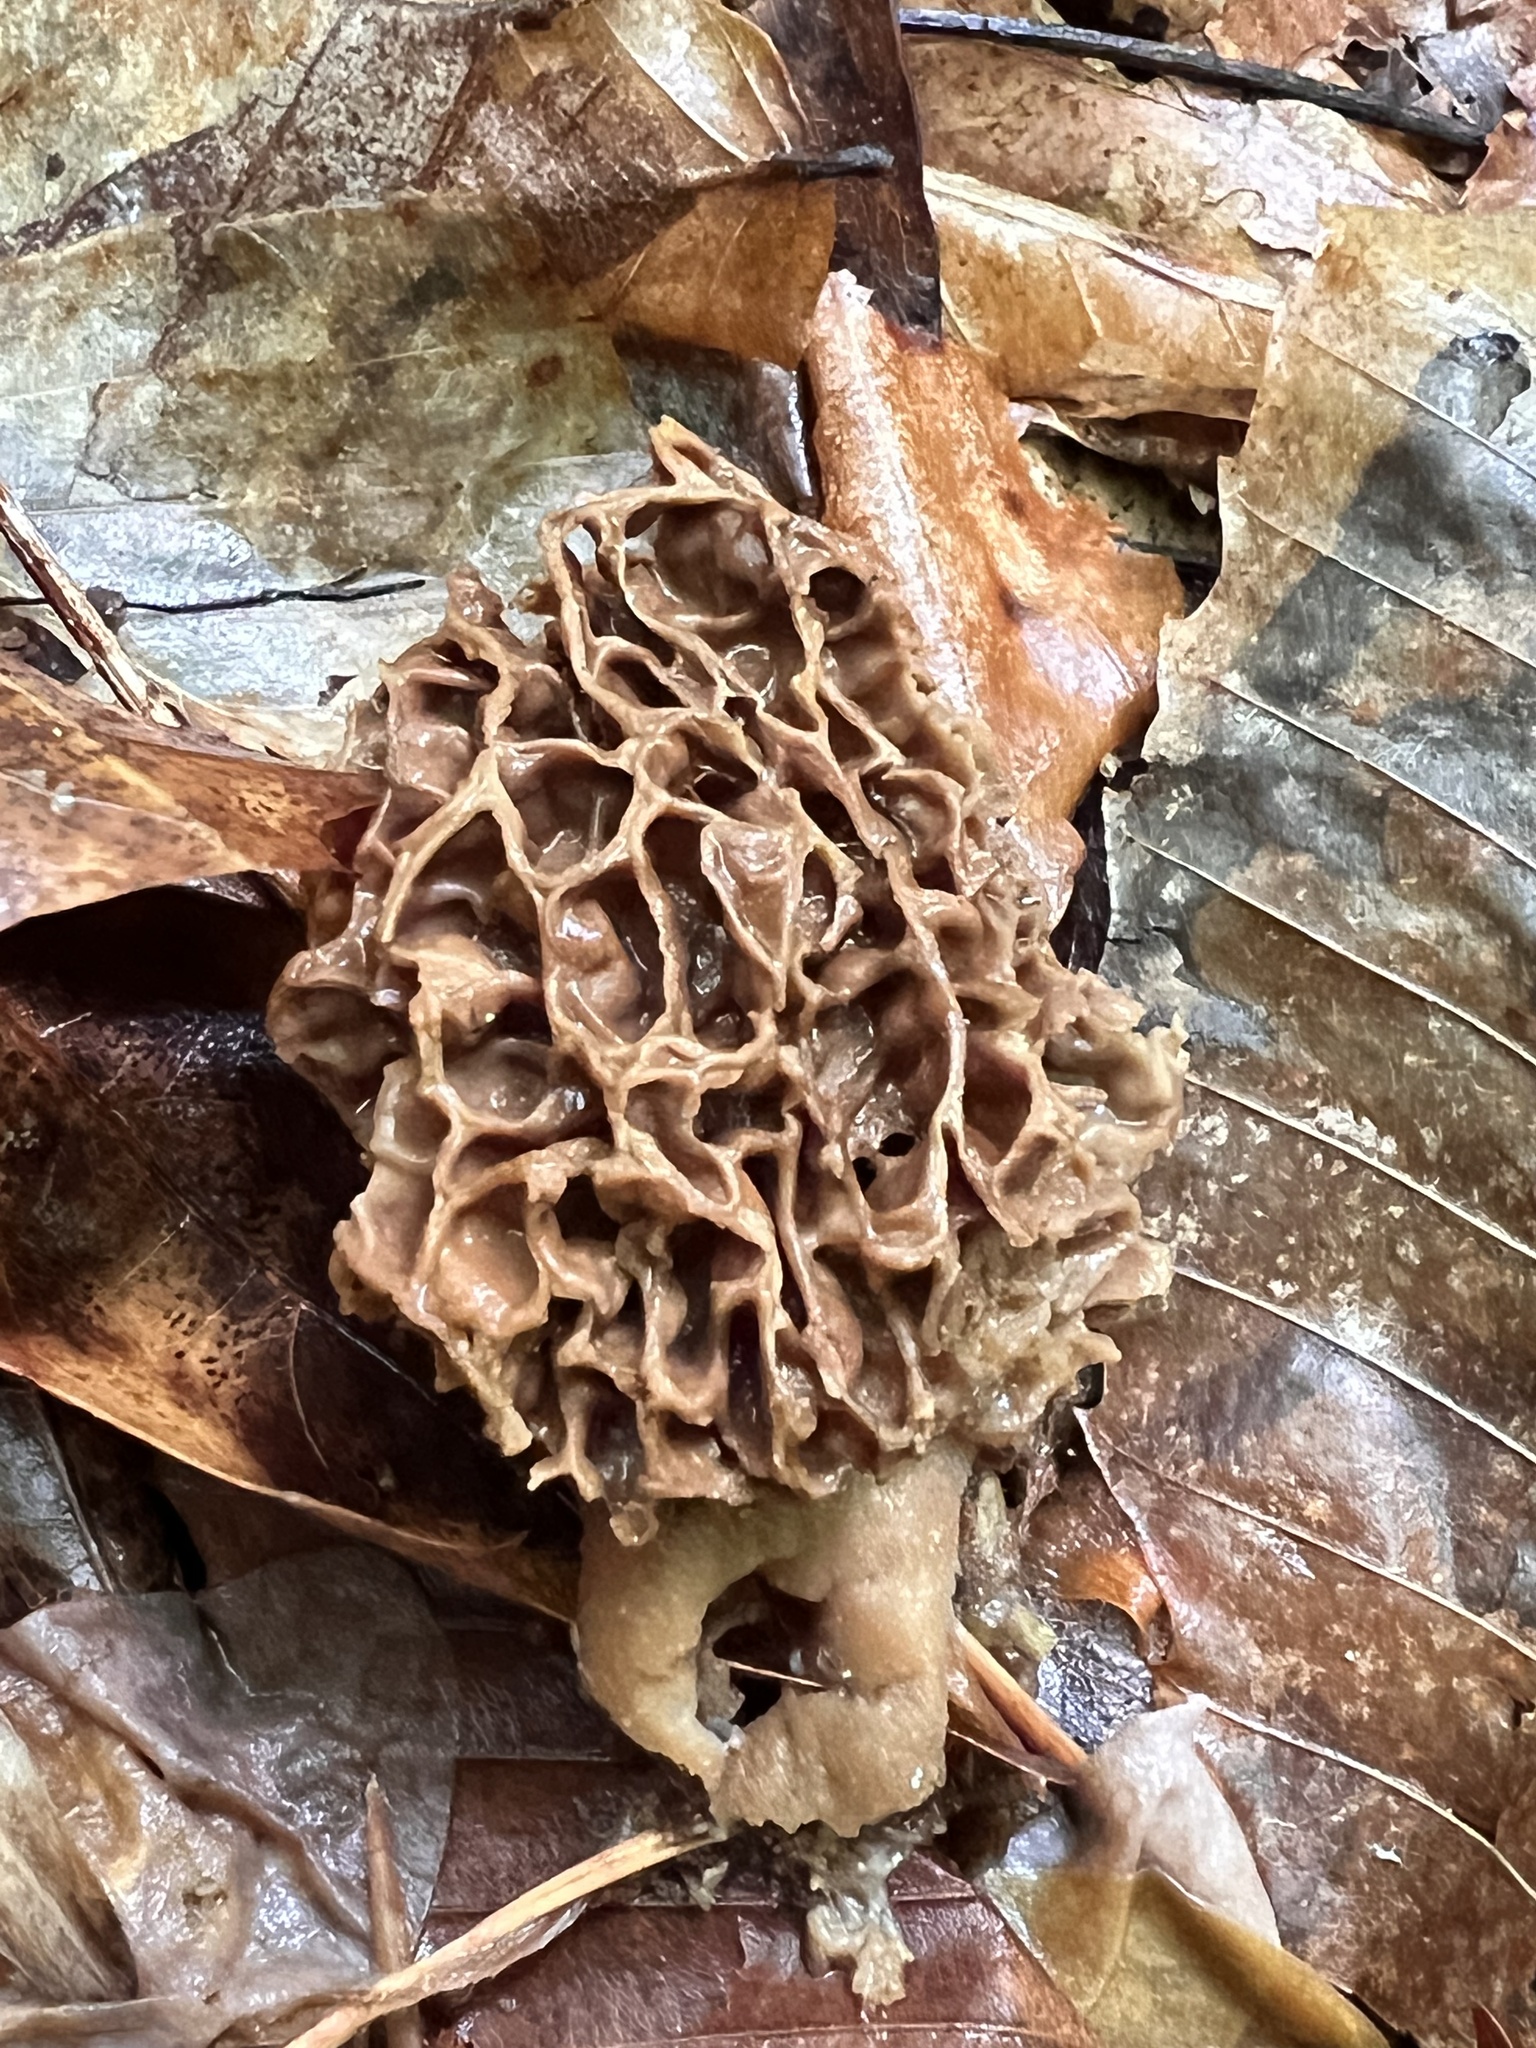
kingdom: Fungi
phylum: Ascomycota
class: Pezizomycetes
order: Pezizales
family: Morchellaceae
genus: Morchella
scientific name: Morchella americana
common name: White morel
